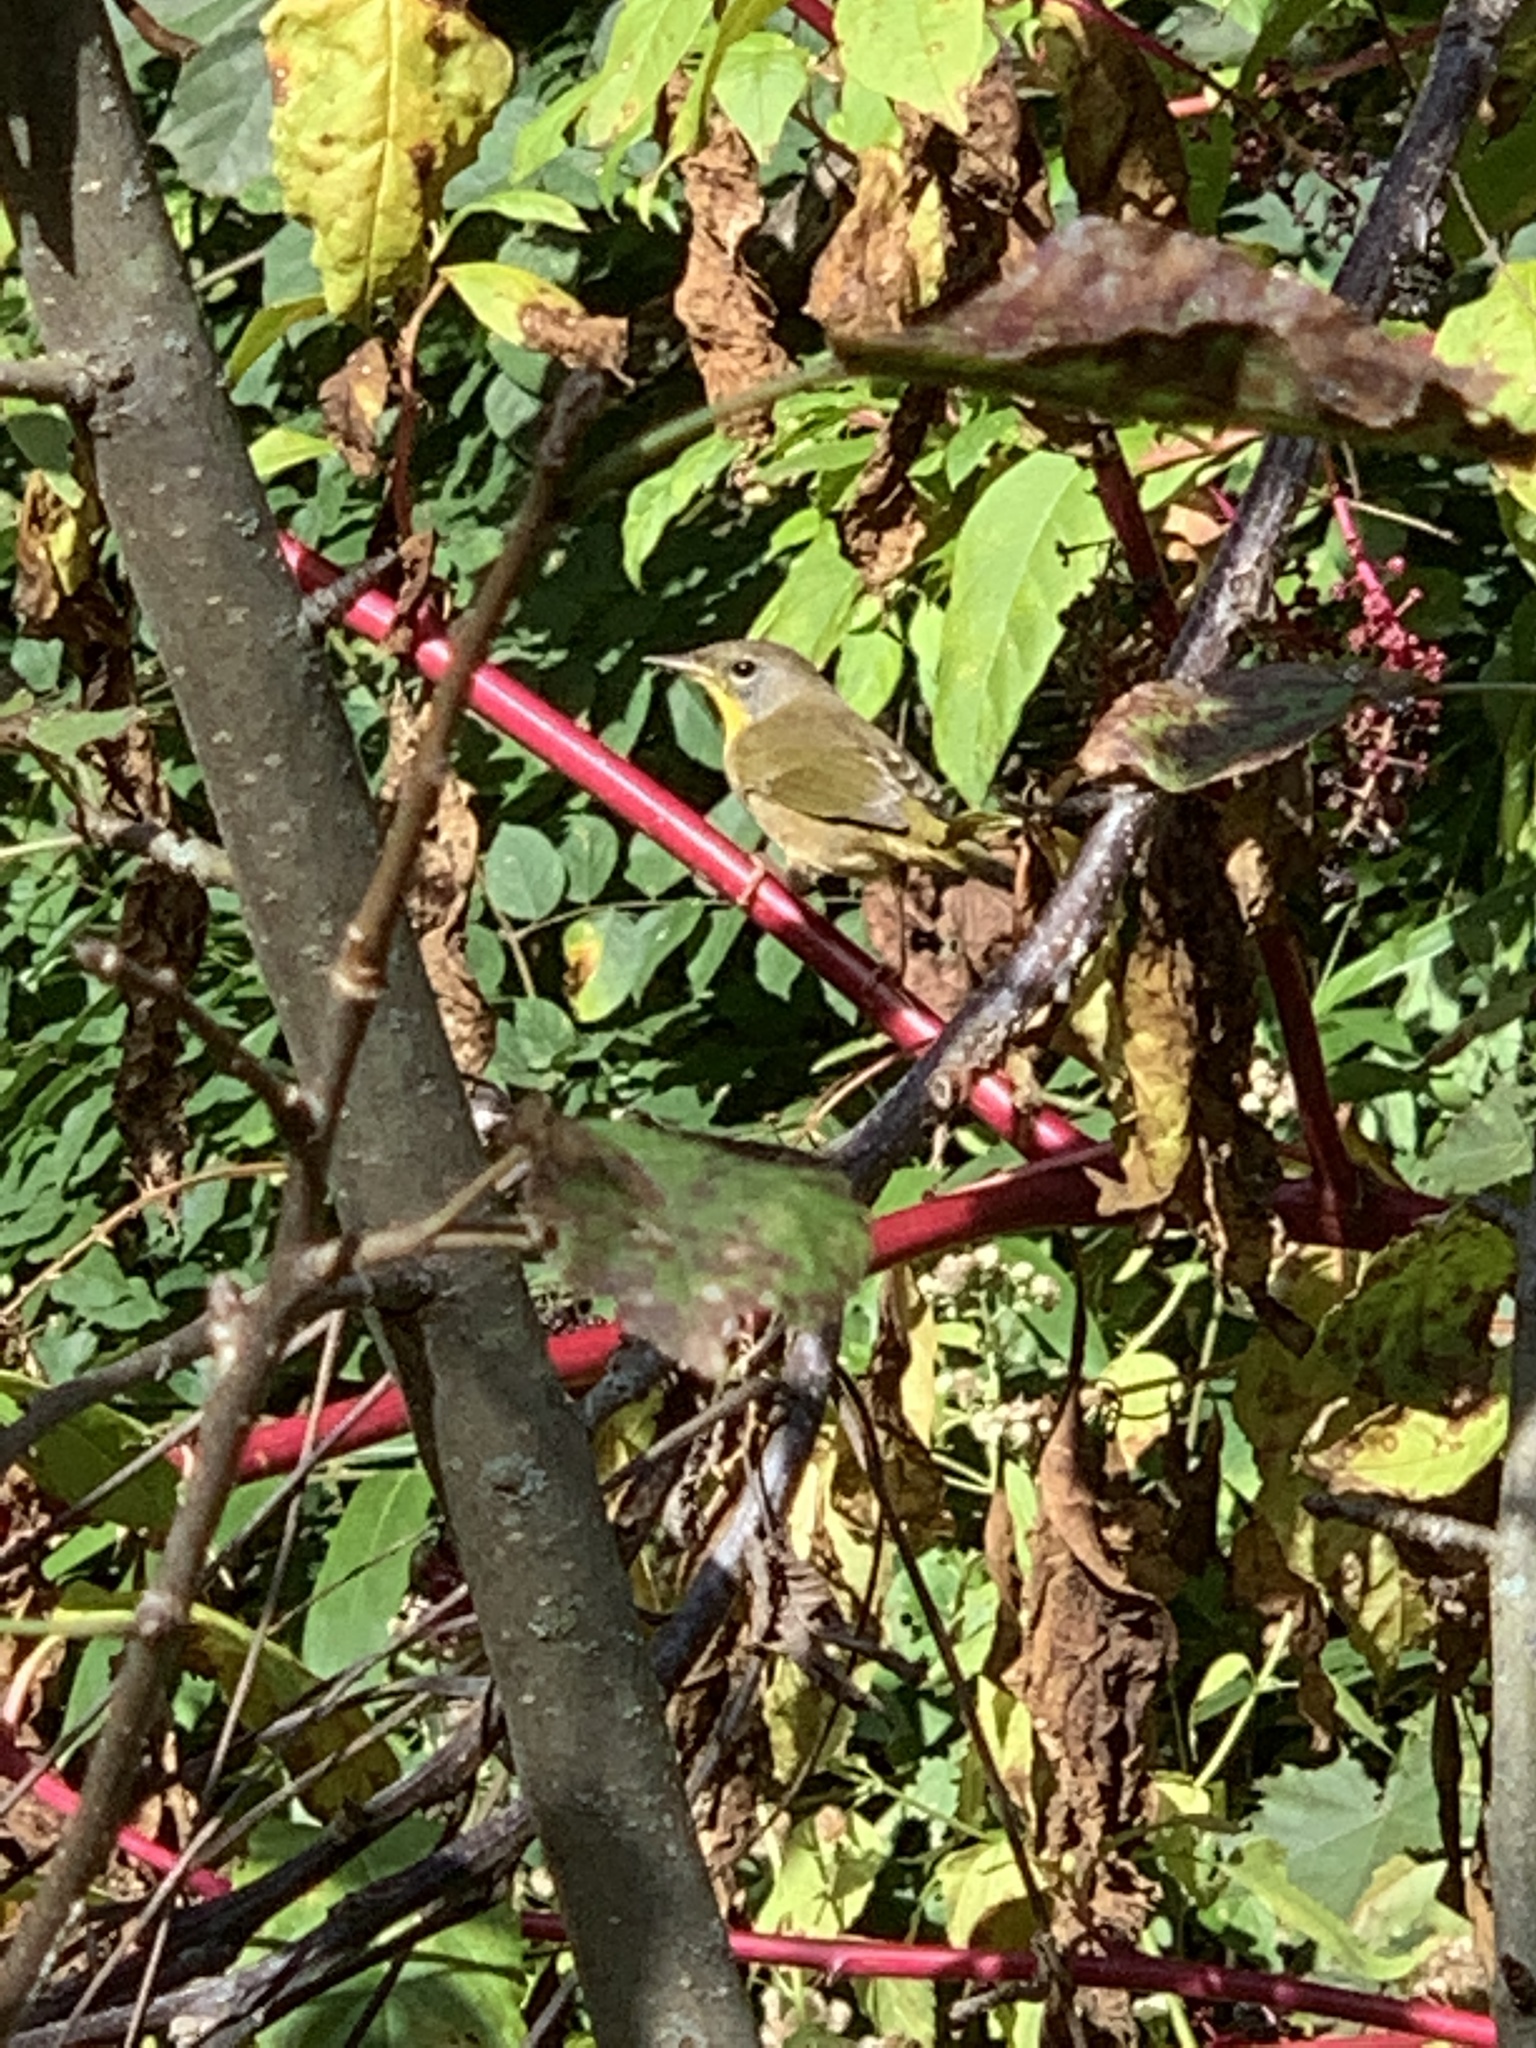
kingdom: Animalia
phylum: Chordata
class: Aves
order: Passeriformes
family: Parulidae
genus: Geothlypis
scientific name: Geothlypis trichas
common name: Common yellowthroat
